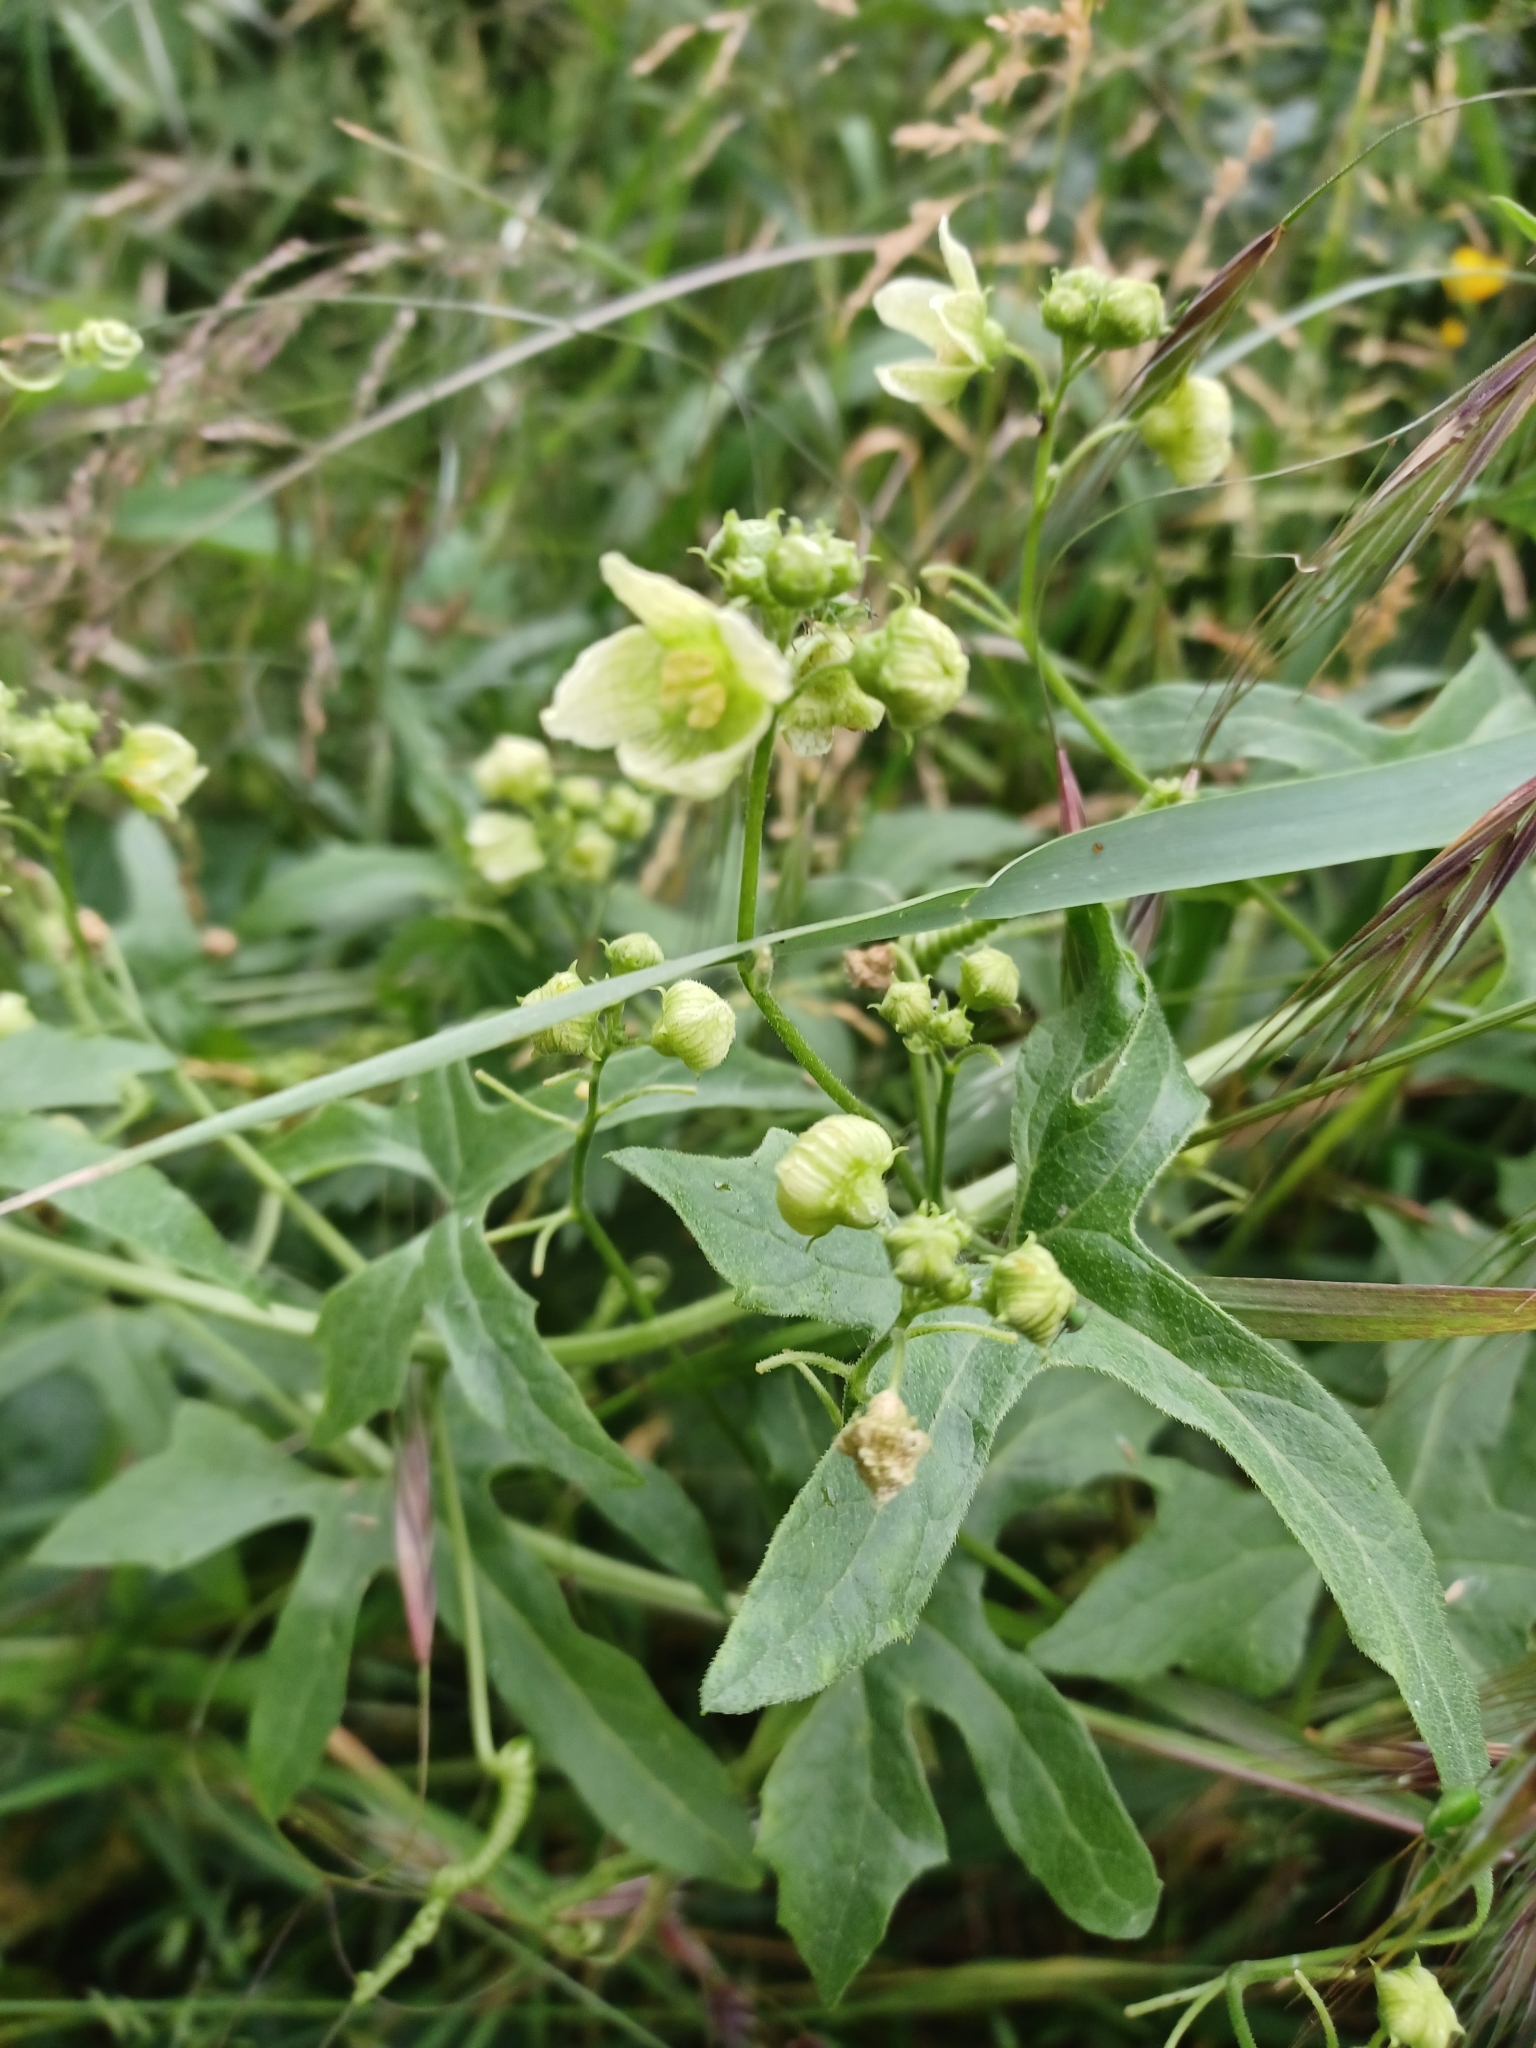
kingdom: Plantae
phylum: Tracheophyta
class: Magnoliopsida
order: Cucurbitales
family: Cucurbitaceae
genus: Bryonia
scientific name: Bryonia cretica
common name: Cretan bryony
